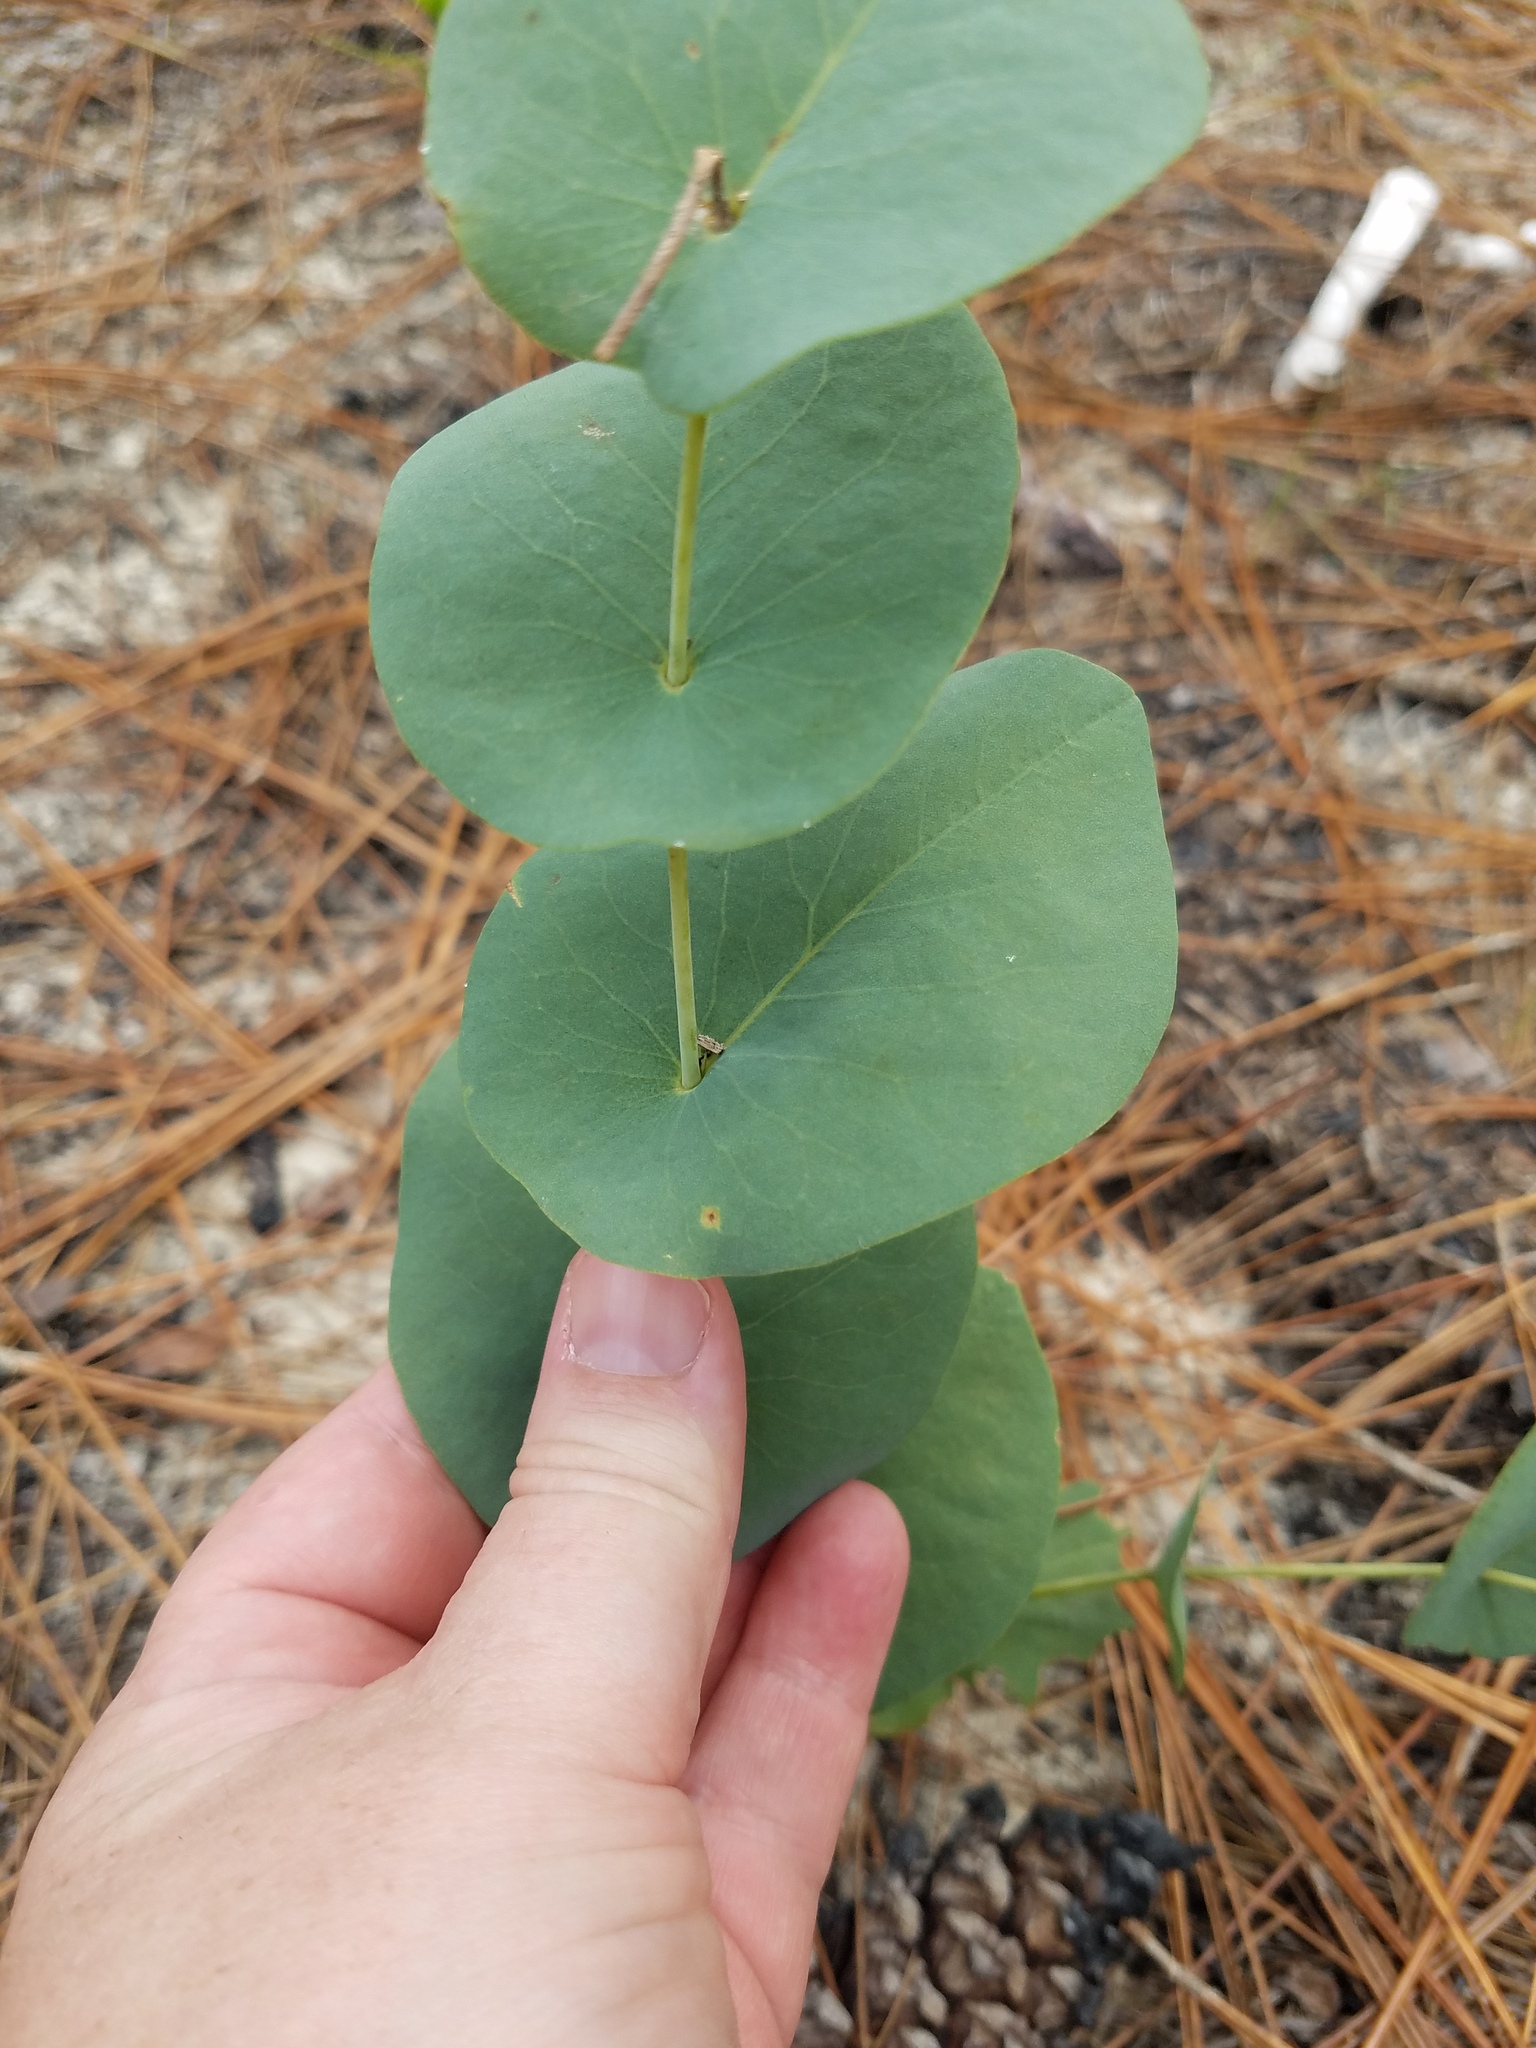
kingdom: Plantae
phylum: Tracheophyta
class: Magnoliopsida
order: Fabales
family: Fabaceae
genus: Baptisia
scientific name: Baptisia perfoliata
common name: Catbells
